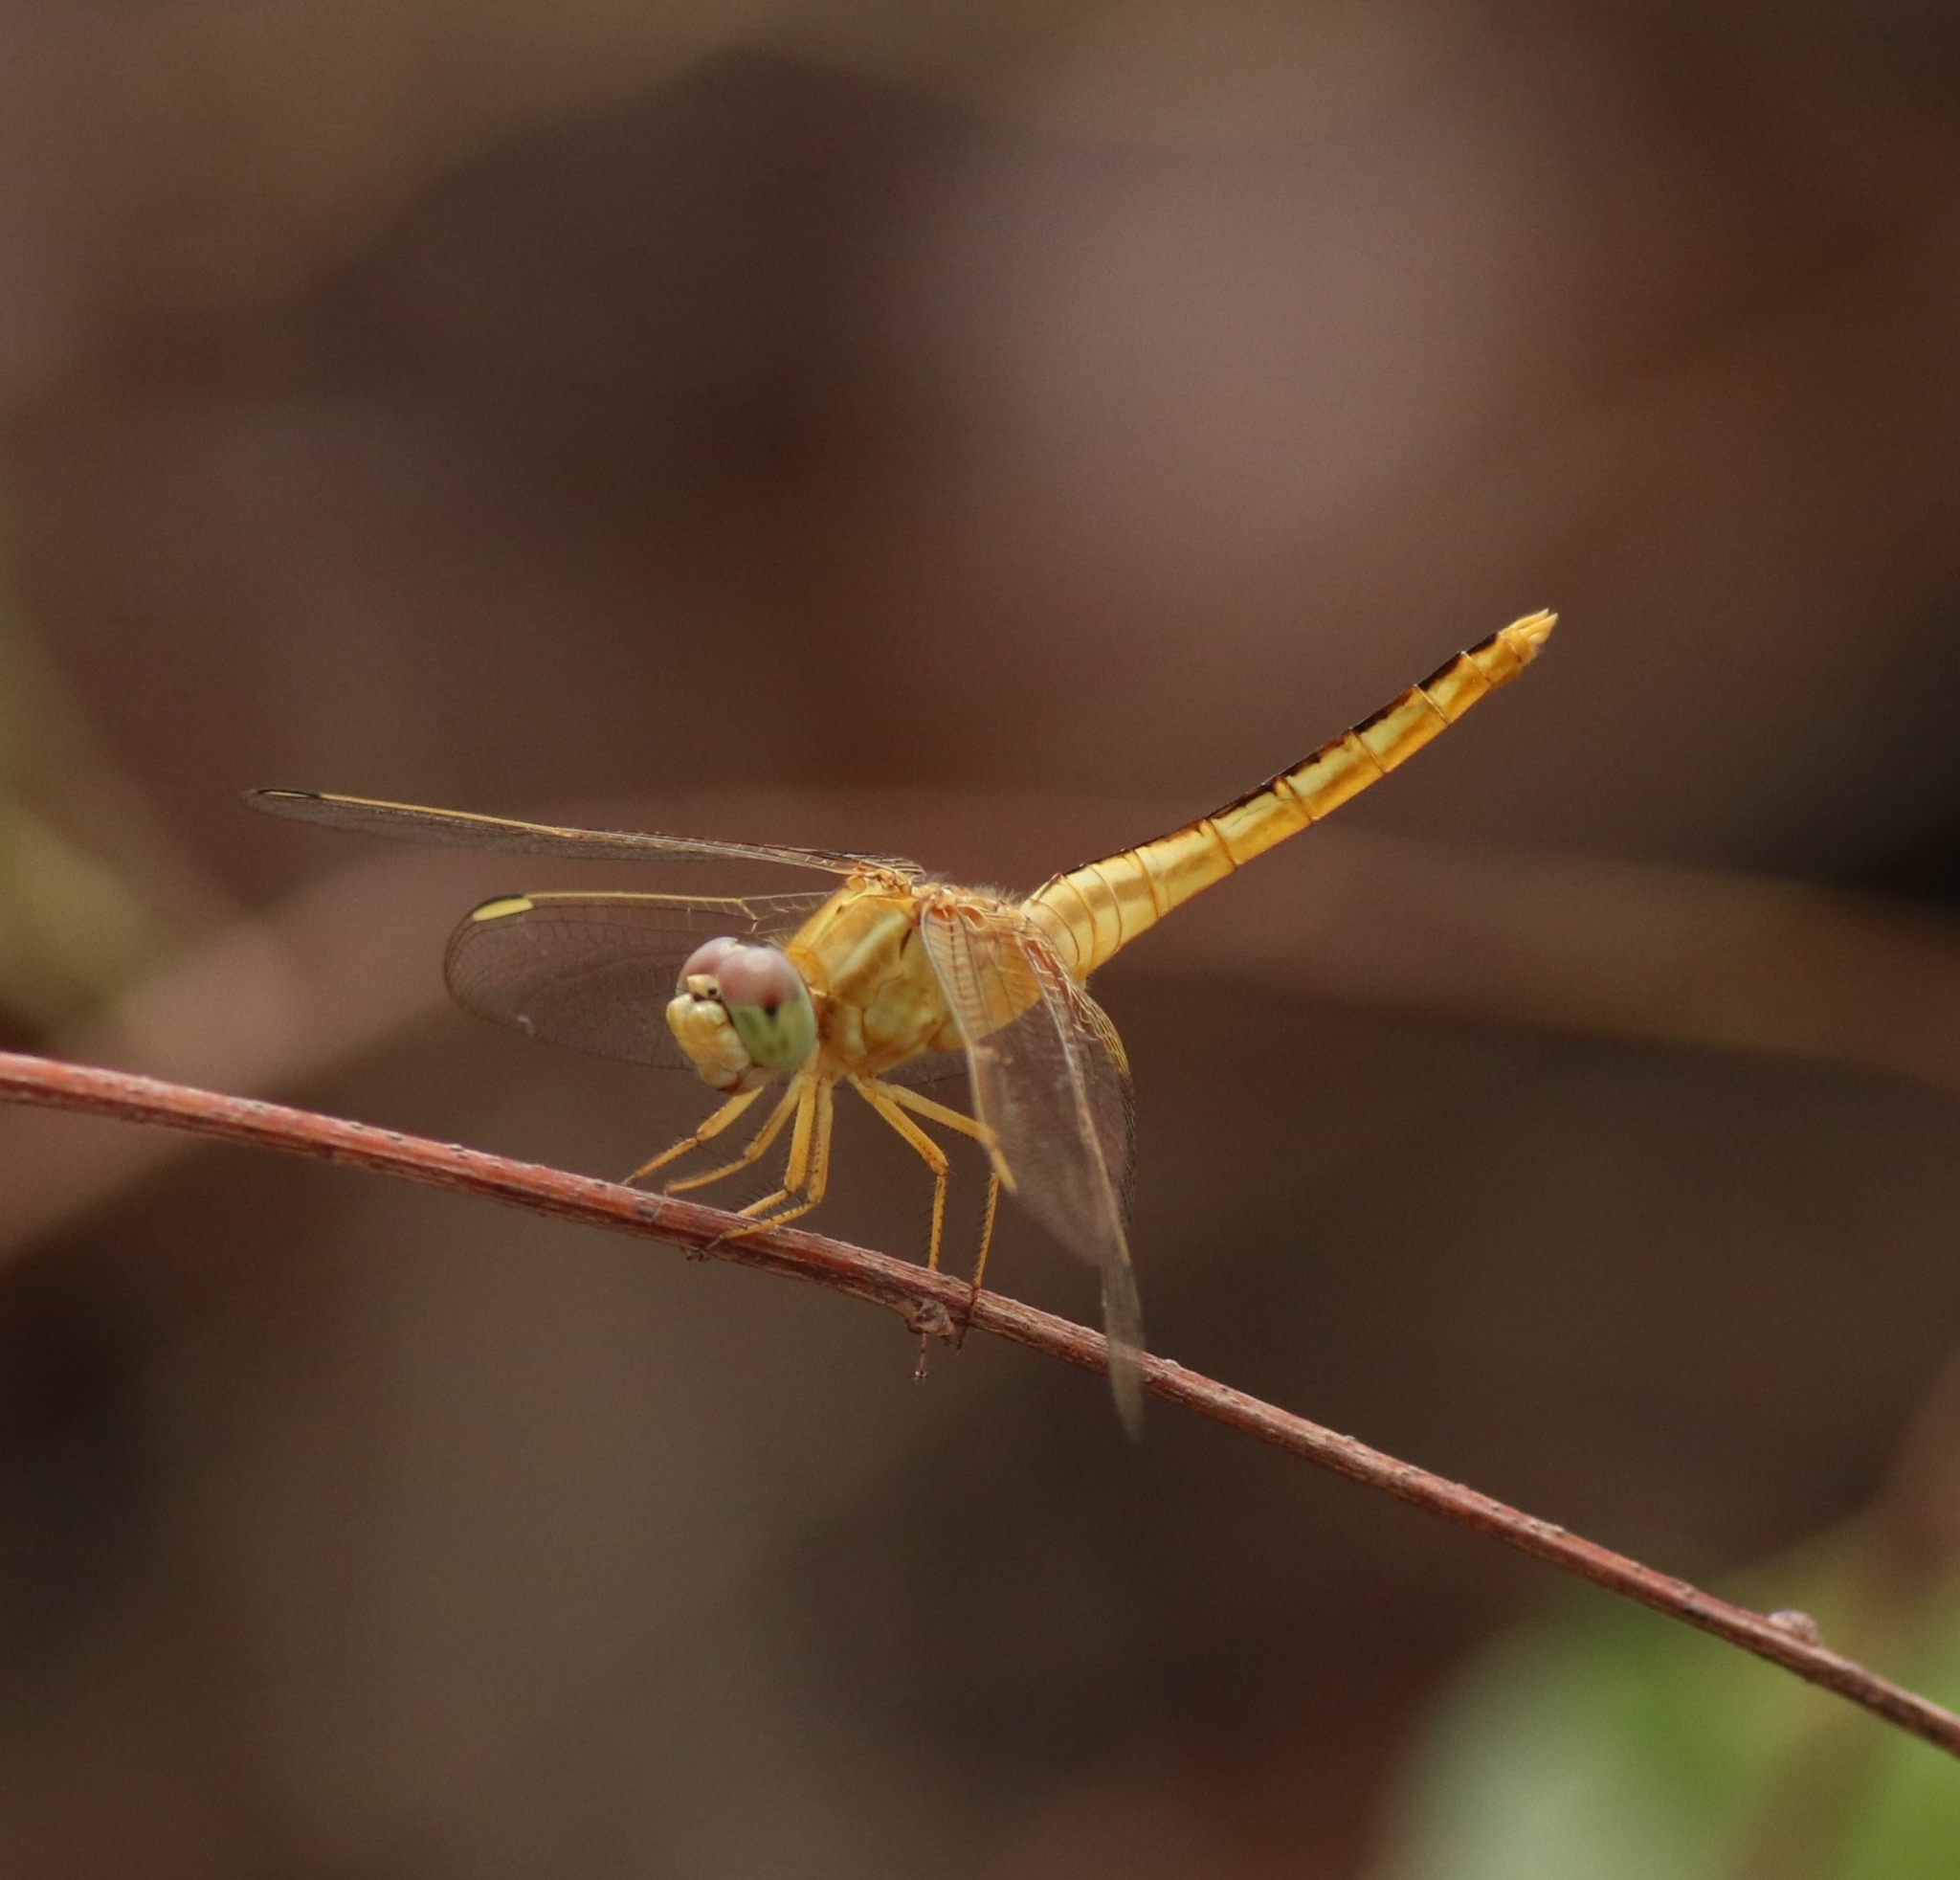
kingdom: Animalia
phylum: Arthropoda
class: Insecta
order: Odonata
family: Libellulidae
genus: Crocothemis
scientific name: Crocothemis servilia
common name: Scarlet skimmer
